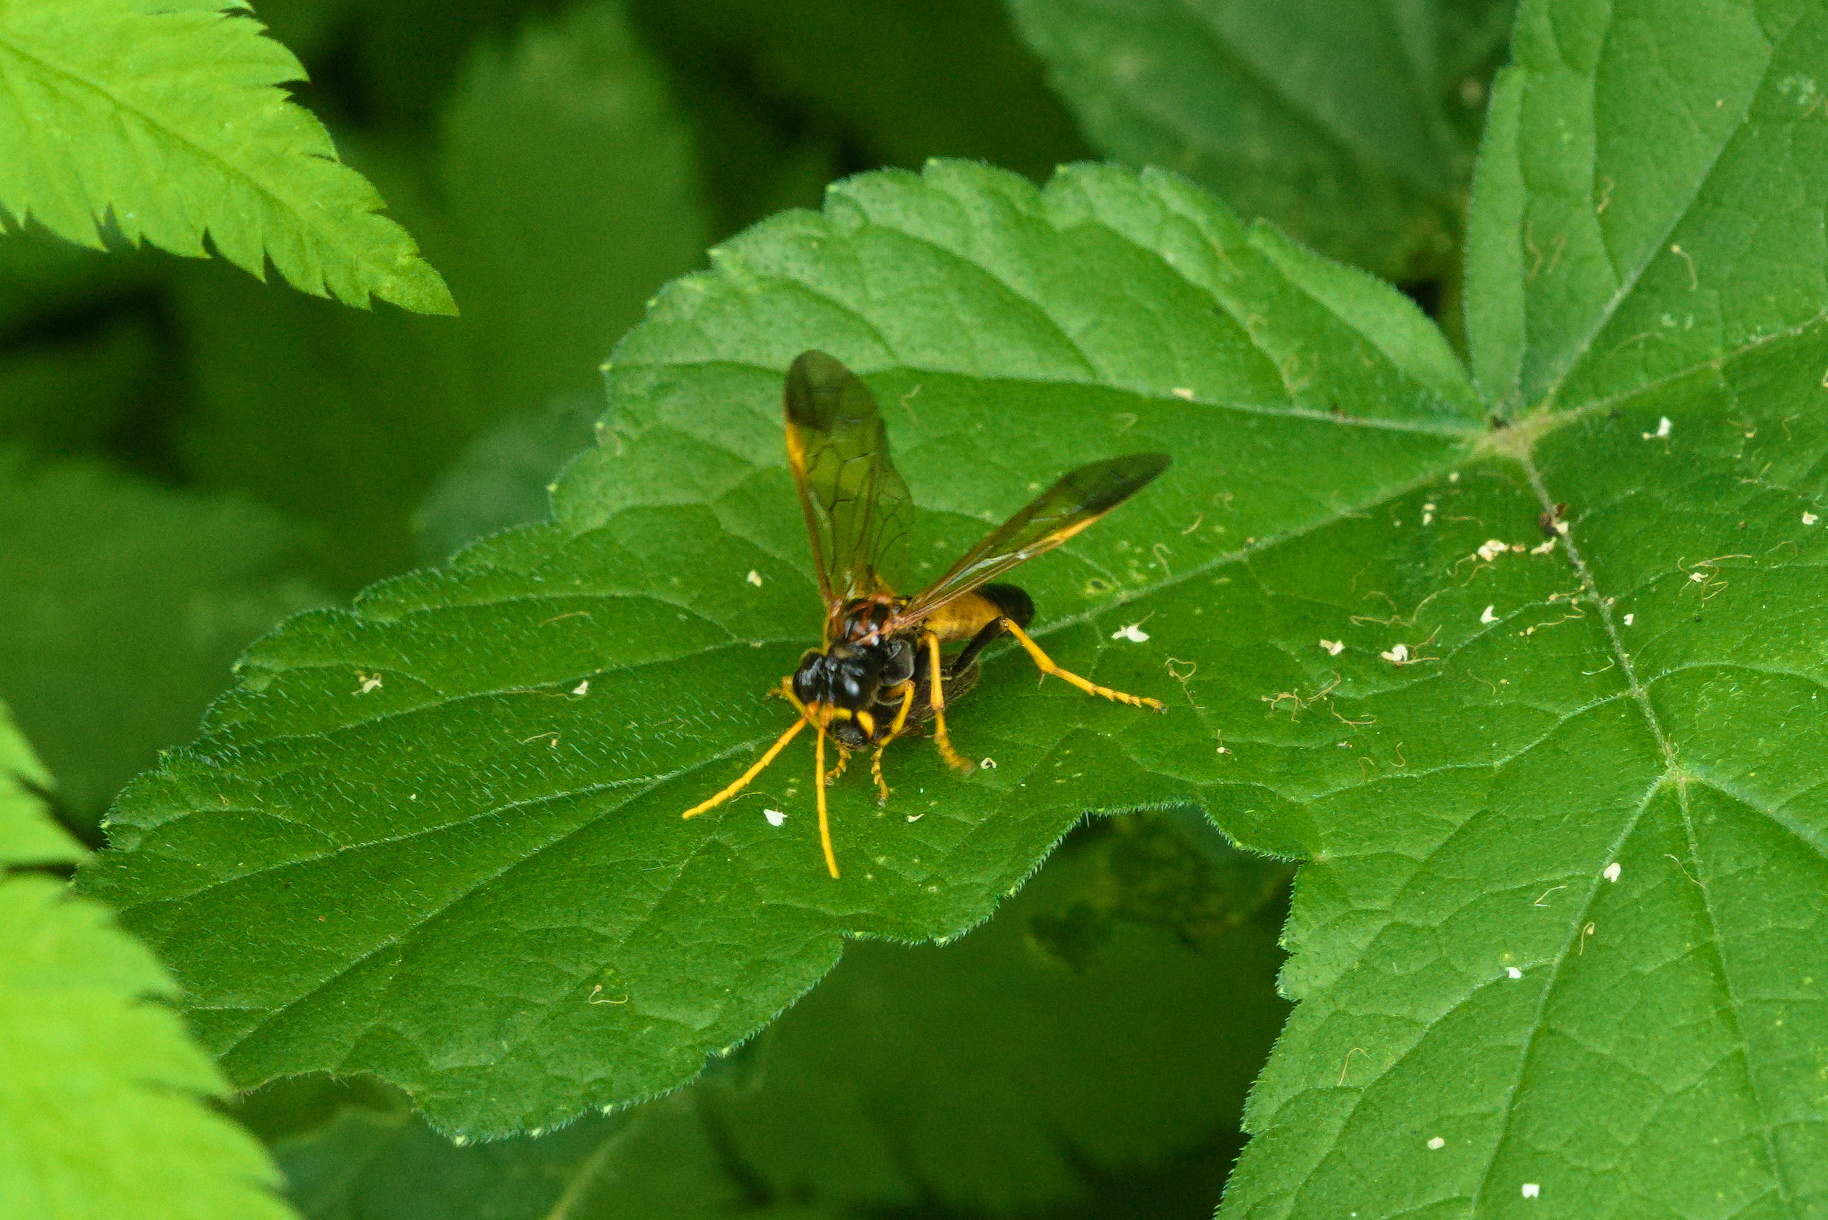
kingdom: Animalia
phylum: Arthropoda
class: Insecta
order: Hymenoptera
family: Tenthredinidae
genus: Tenthredo
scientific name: Tenthredo campestris
